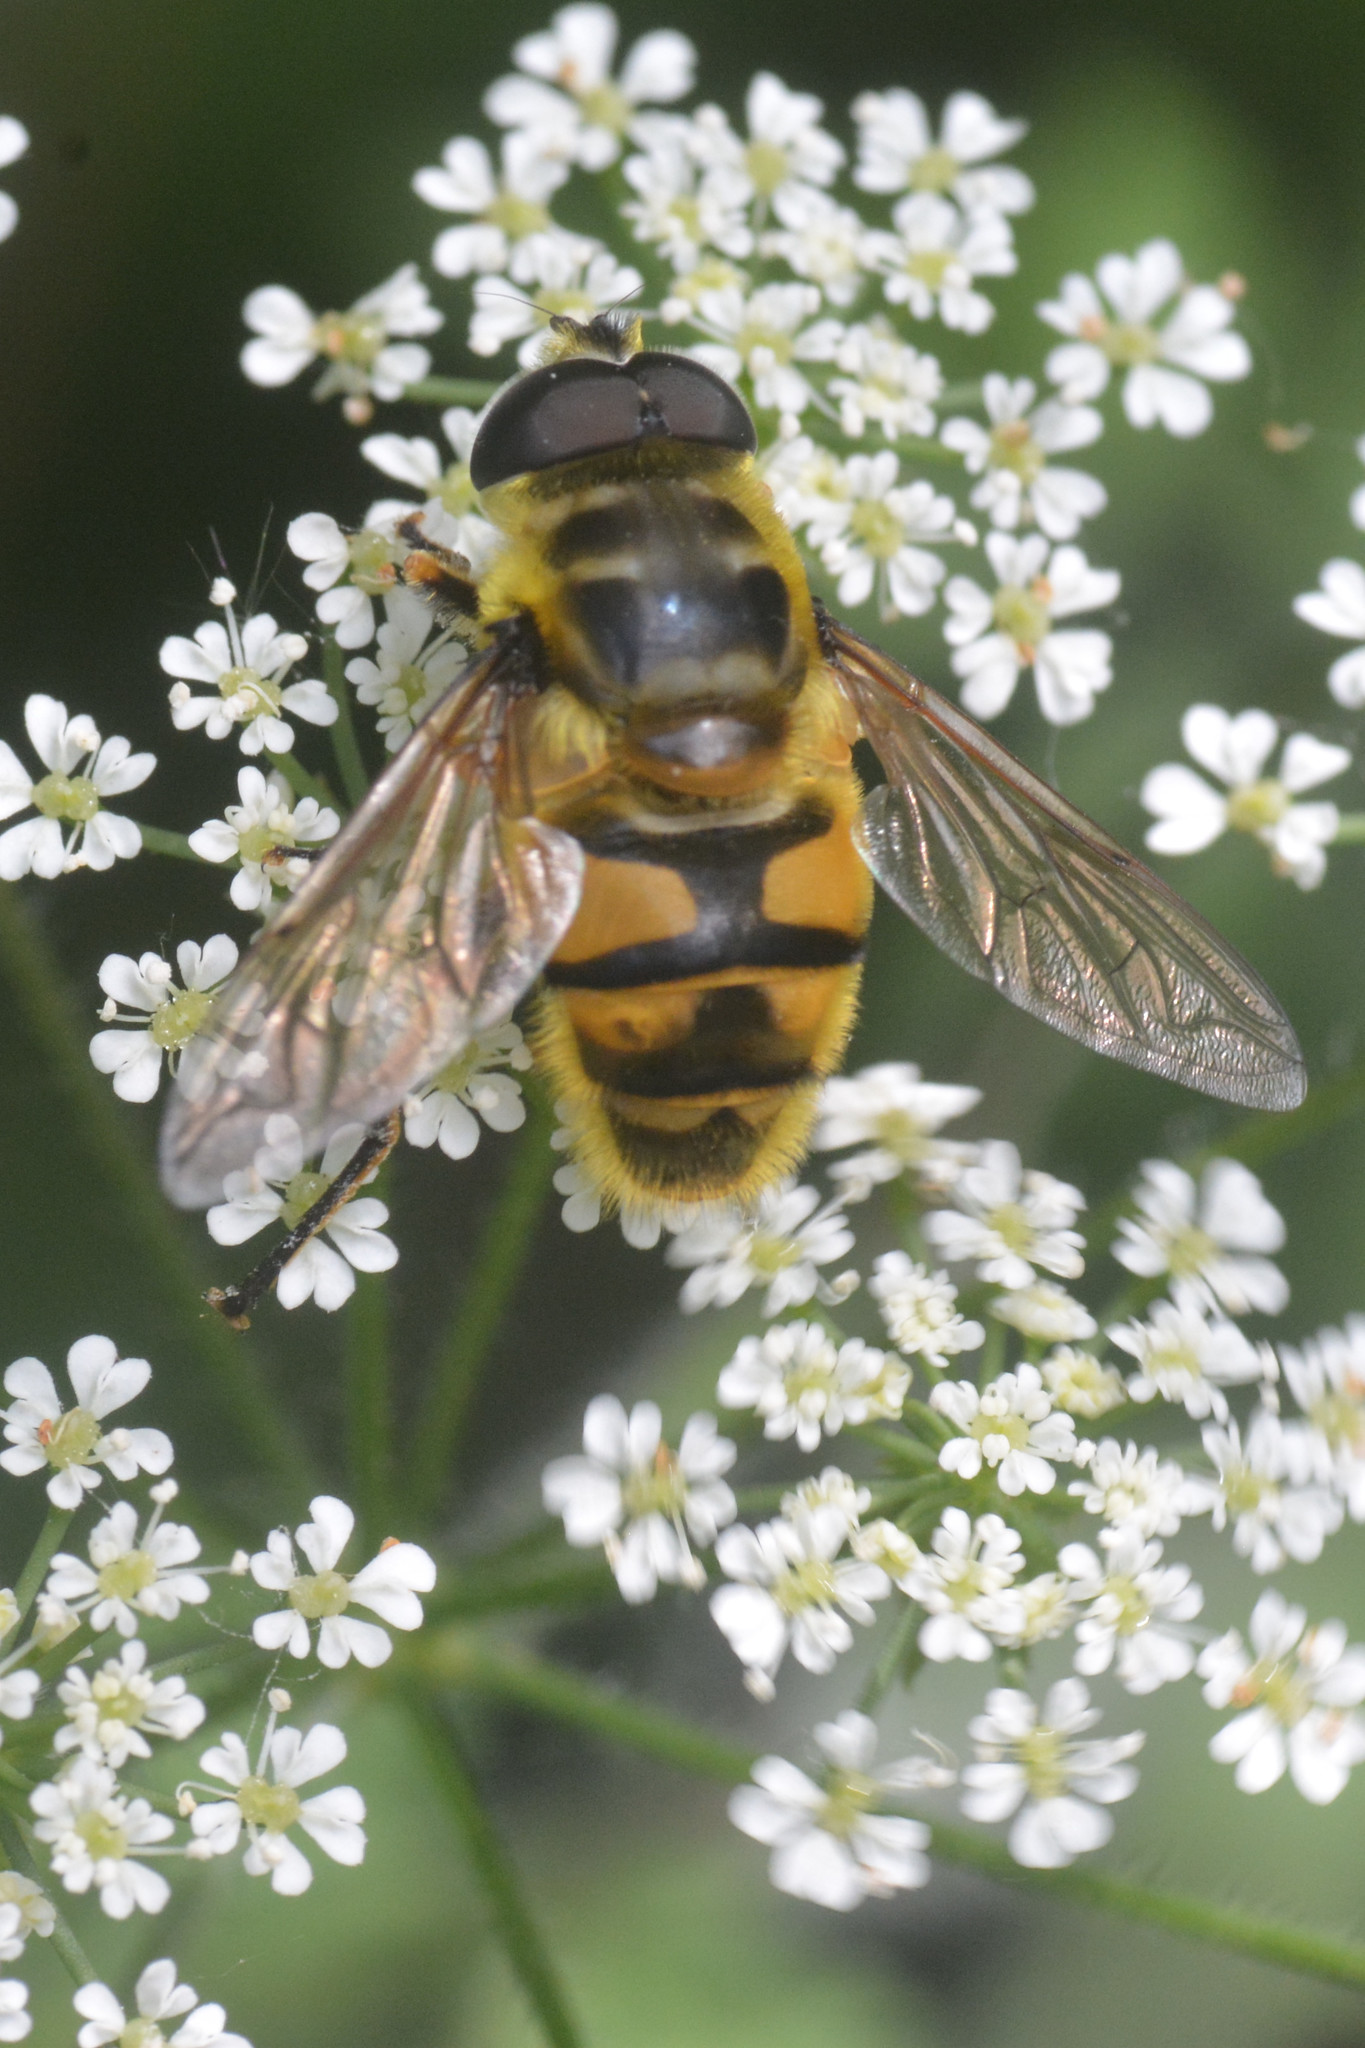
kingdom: Animalia
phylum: Arthropoda
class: Insecta
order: Diptera
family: Syrphidae
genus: Myathropa
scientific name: Myathropa florea
